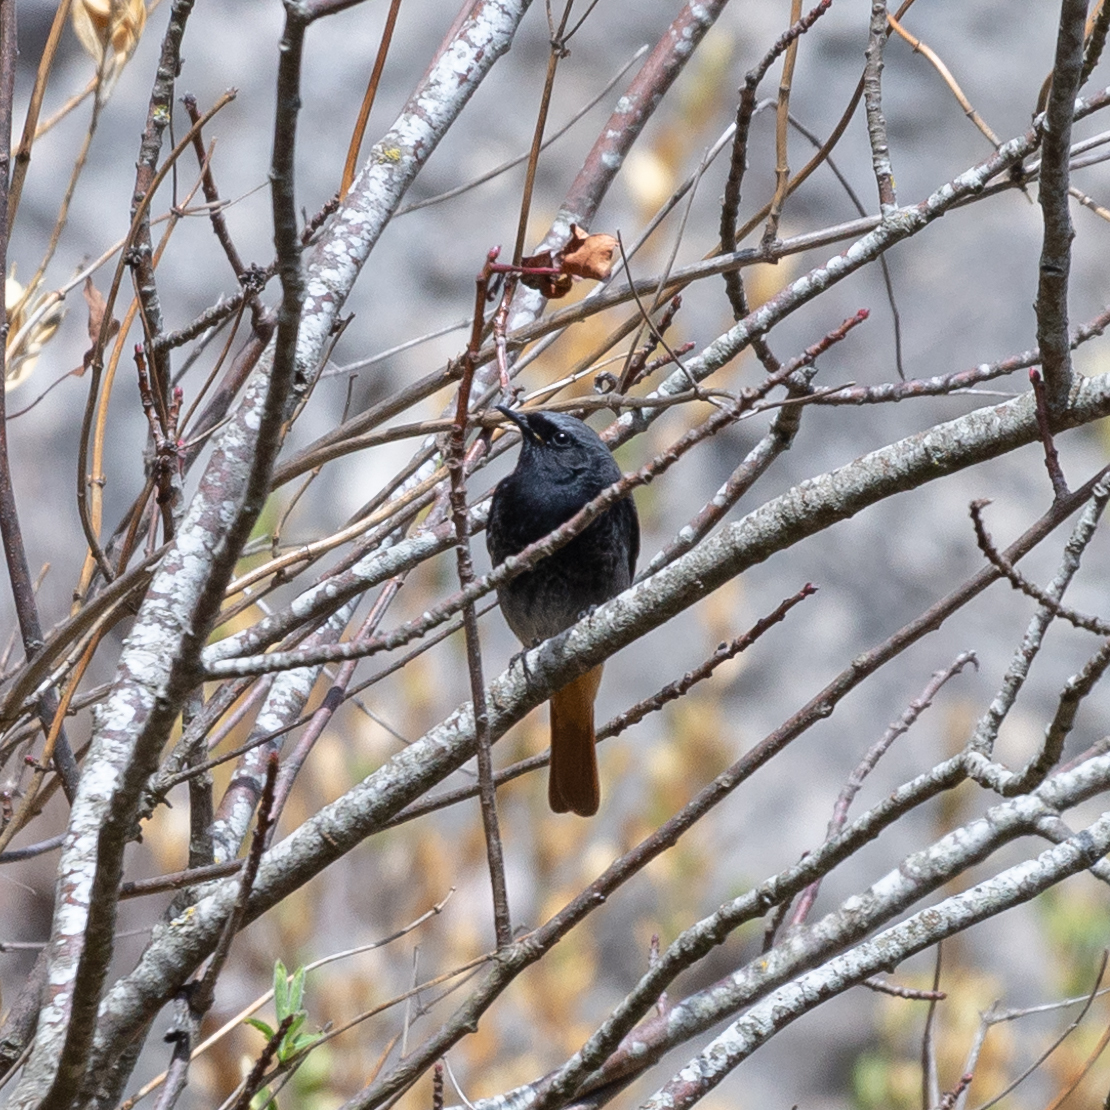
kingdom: Animalia
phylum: Chordata
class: Aves
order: Passeriformes
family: Muscicapidae
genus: Phoenicurus
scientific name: Phoenicurus ochruros
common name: Black redstart
